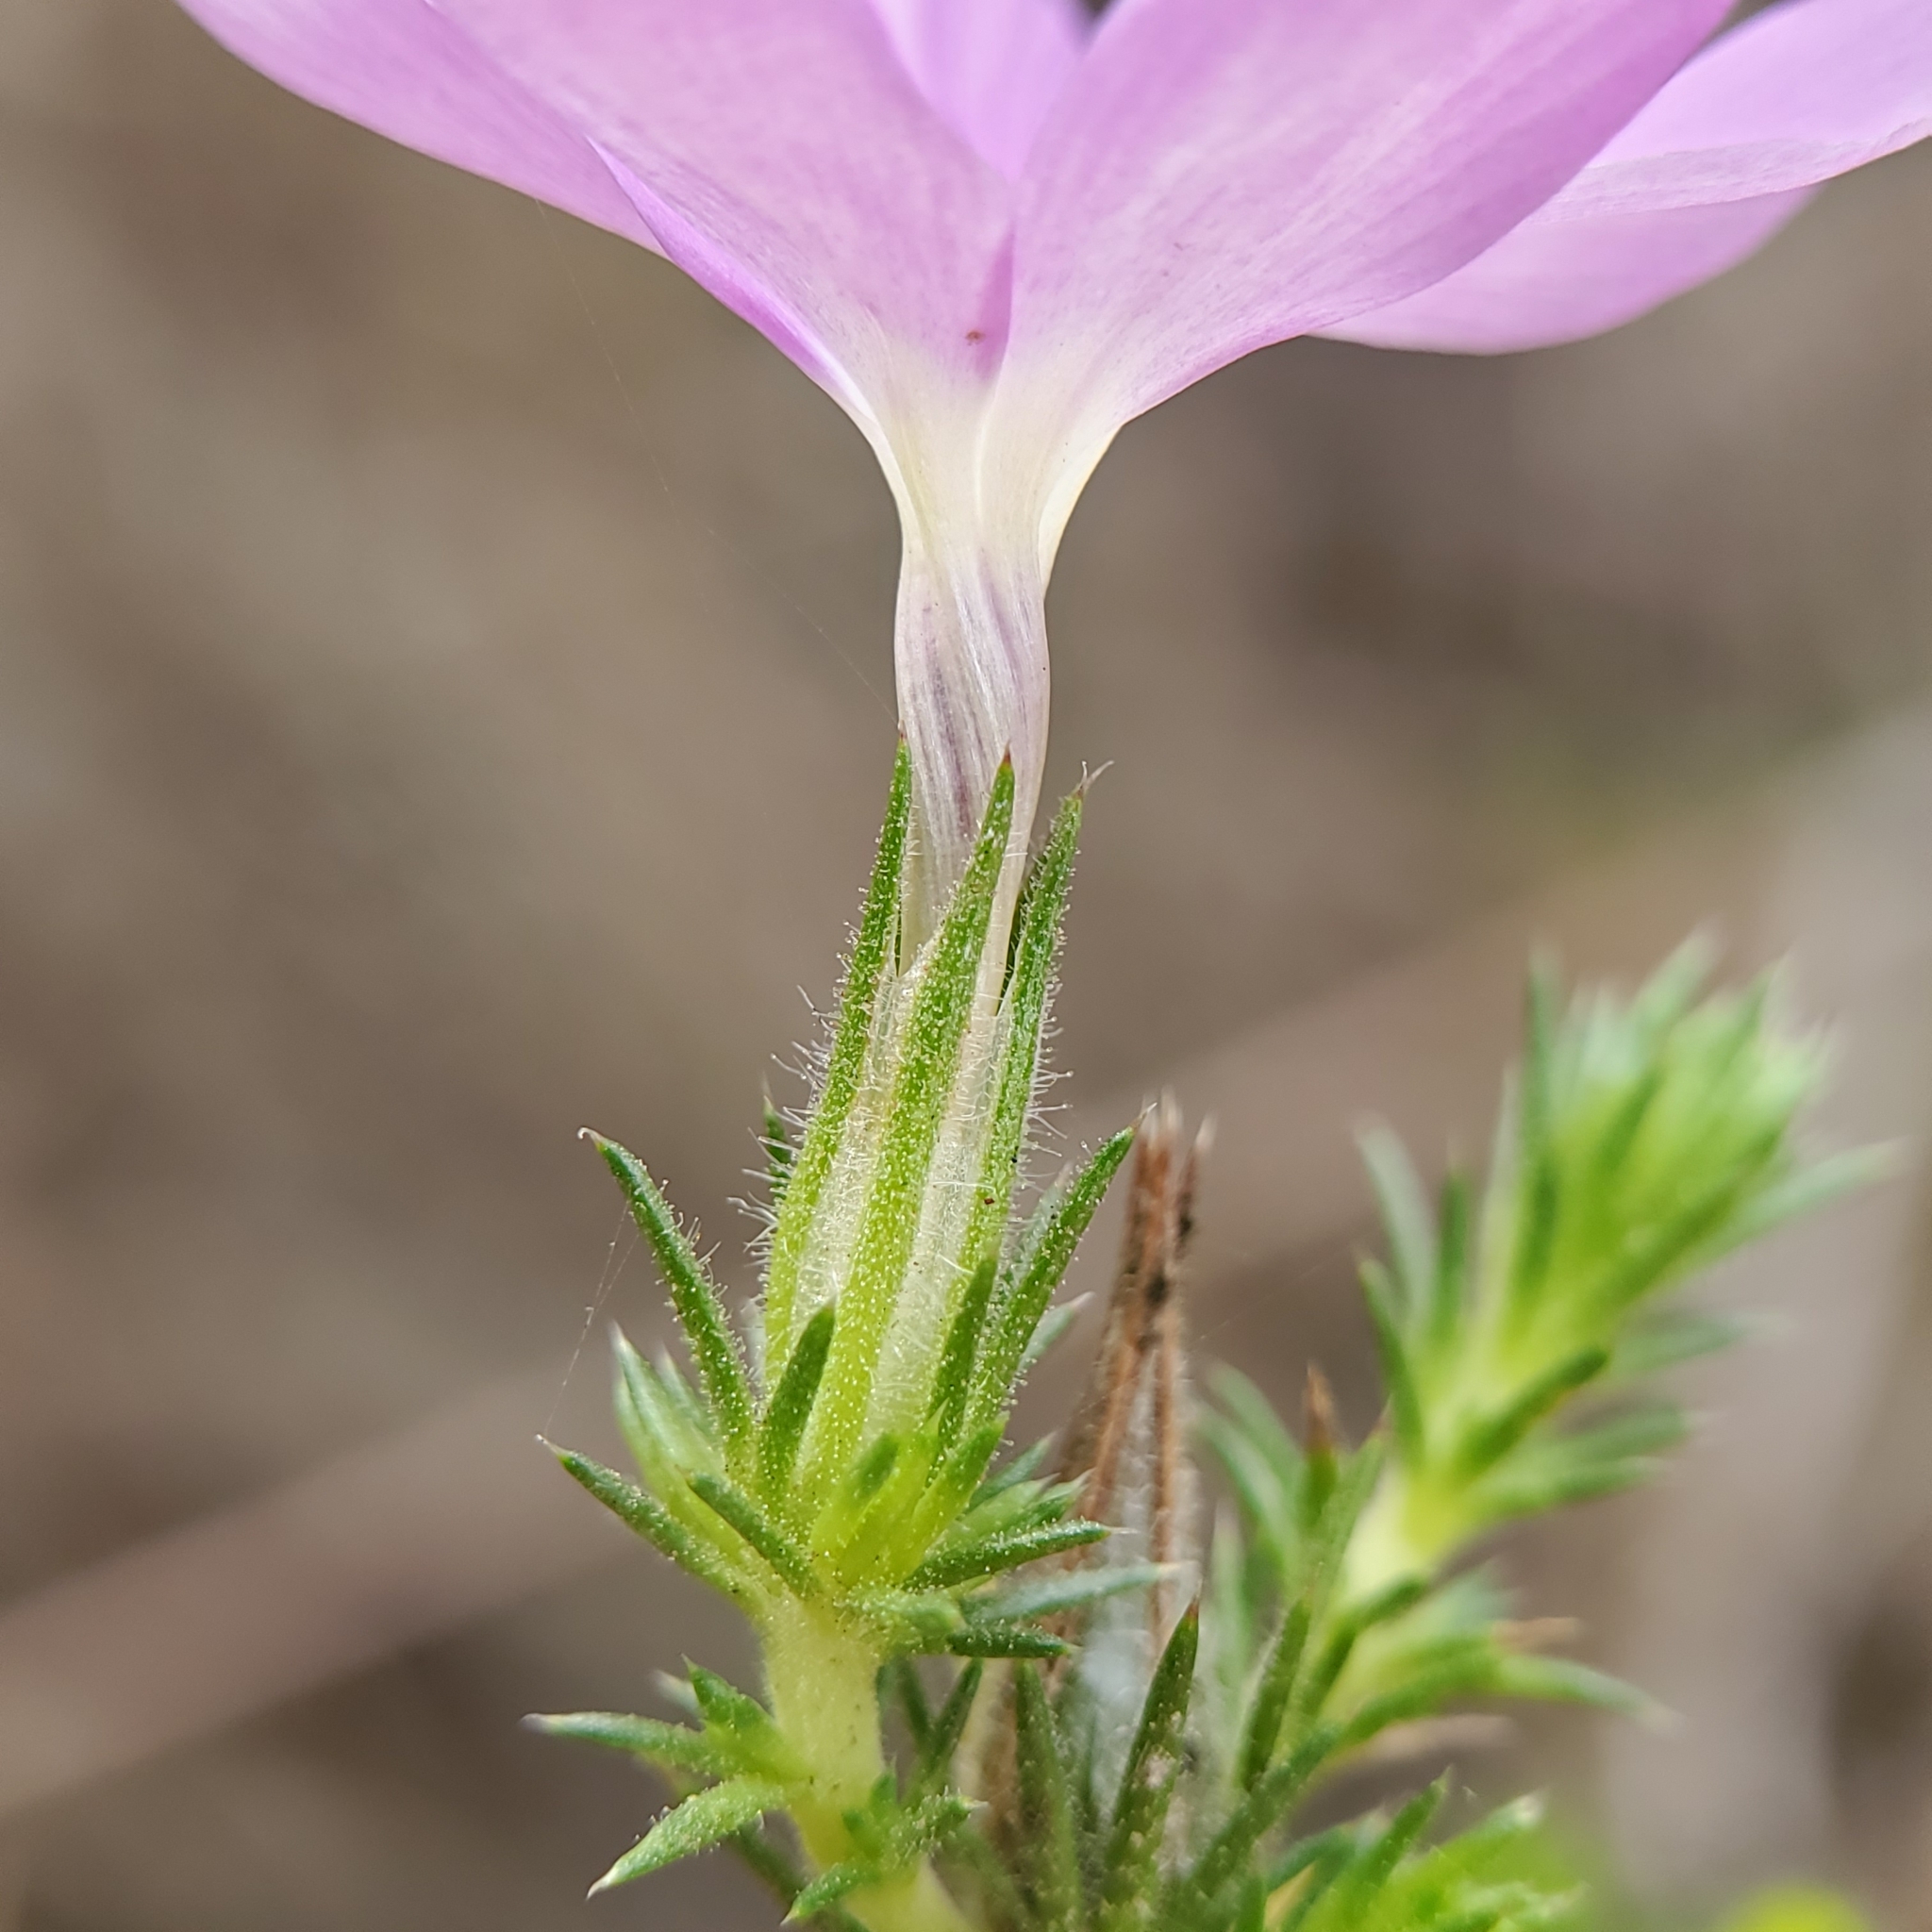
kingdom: Plantae
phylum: Tracheophyta
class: Magnoliopsida
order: Ericales
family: Polemoniaceae
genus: Linanthus
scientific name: Linanthus californicus
